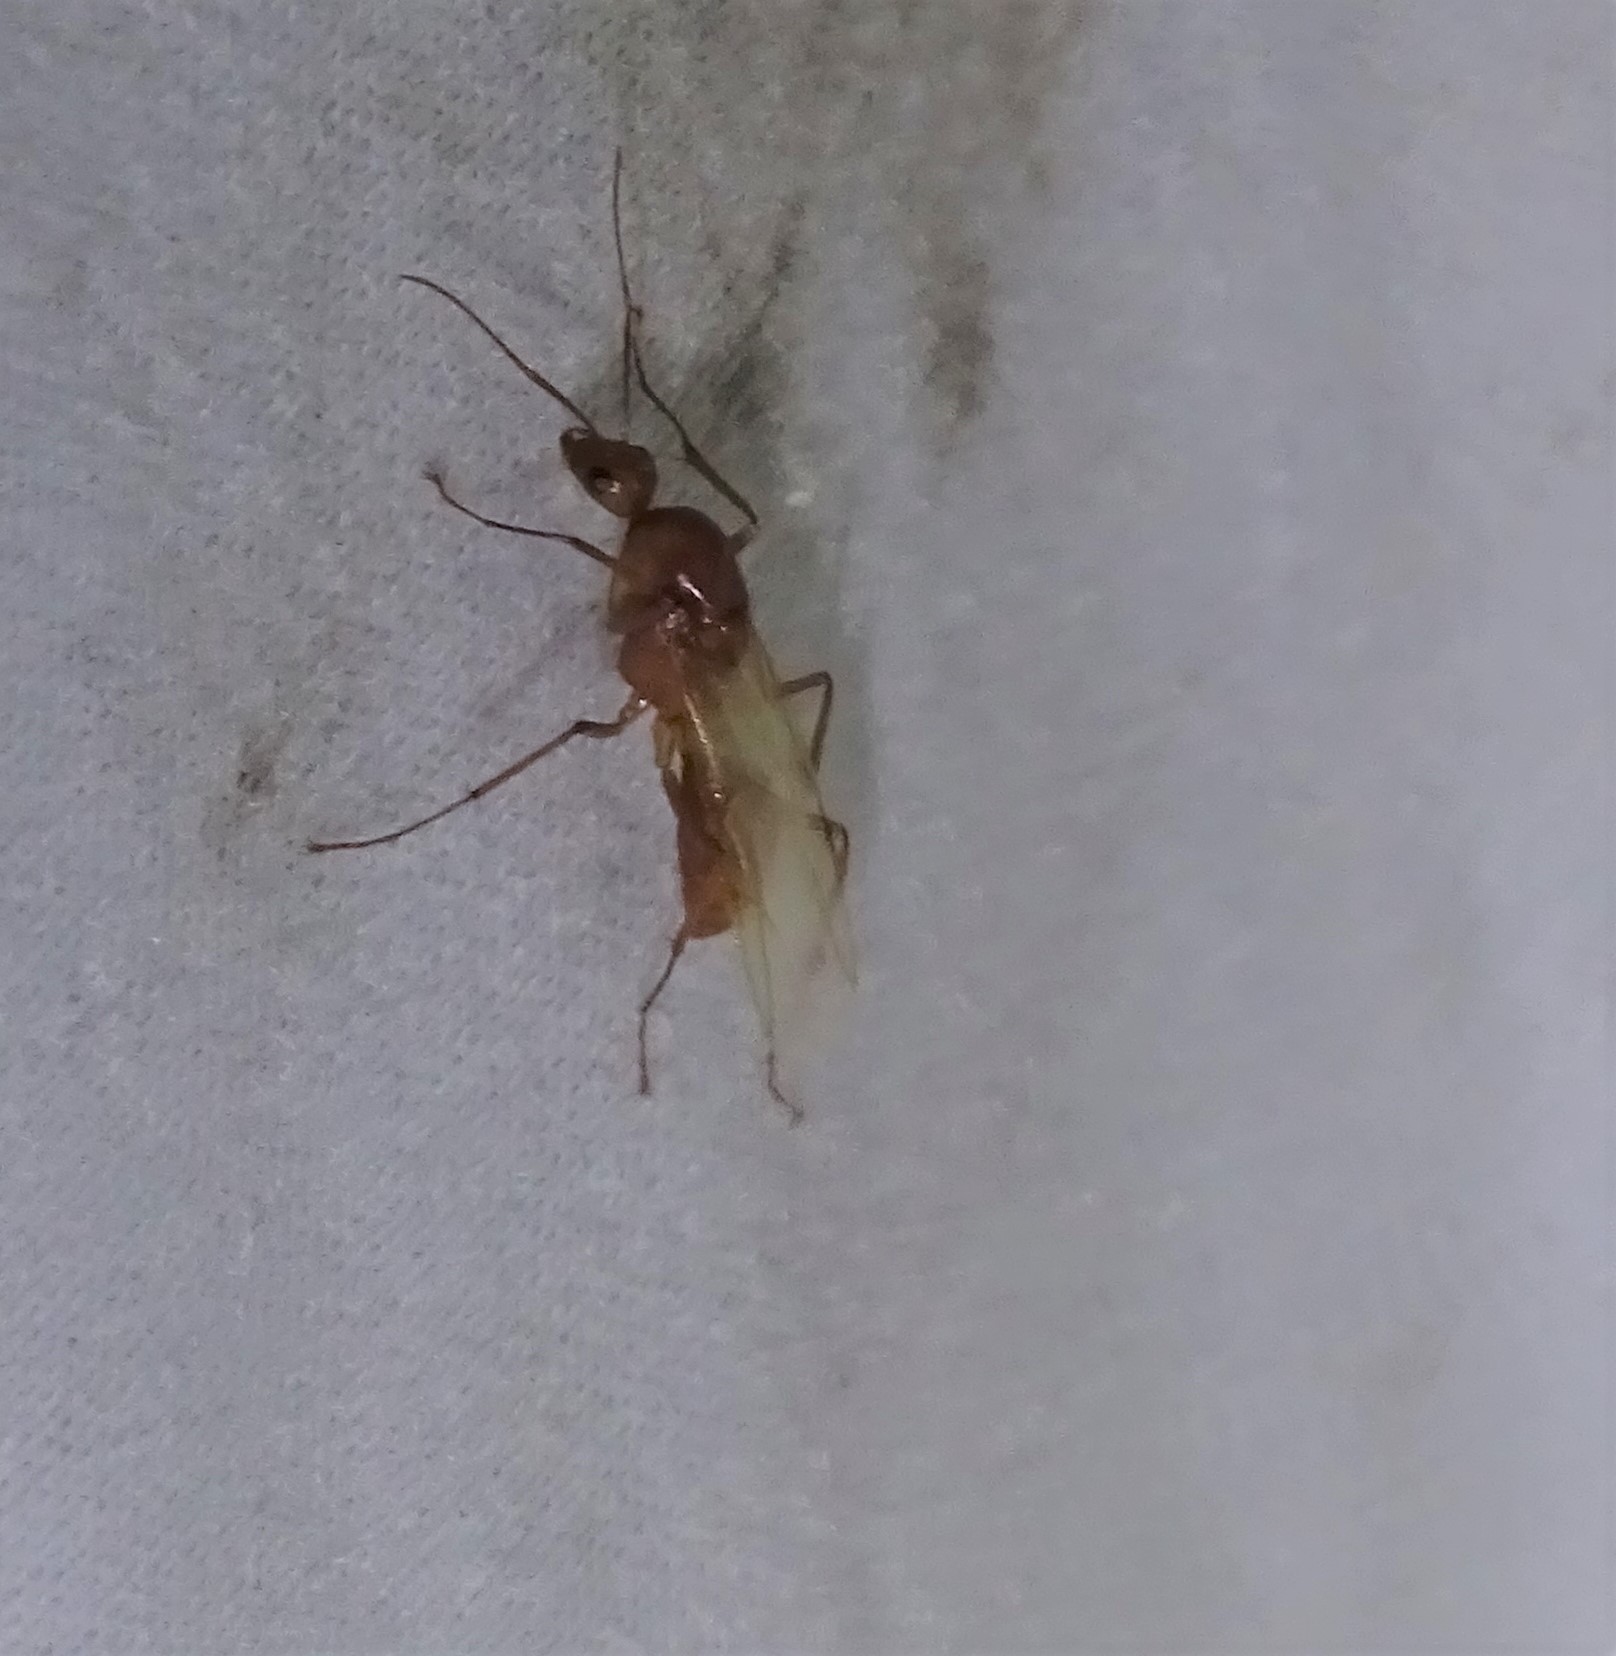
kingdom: Animalia
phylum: Arthropoda
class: Insecta
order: Hymenoptera
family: Formicidae
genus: Camponotus
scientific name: Camponotus castaneus
